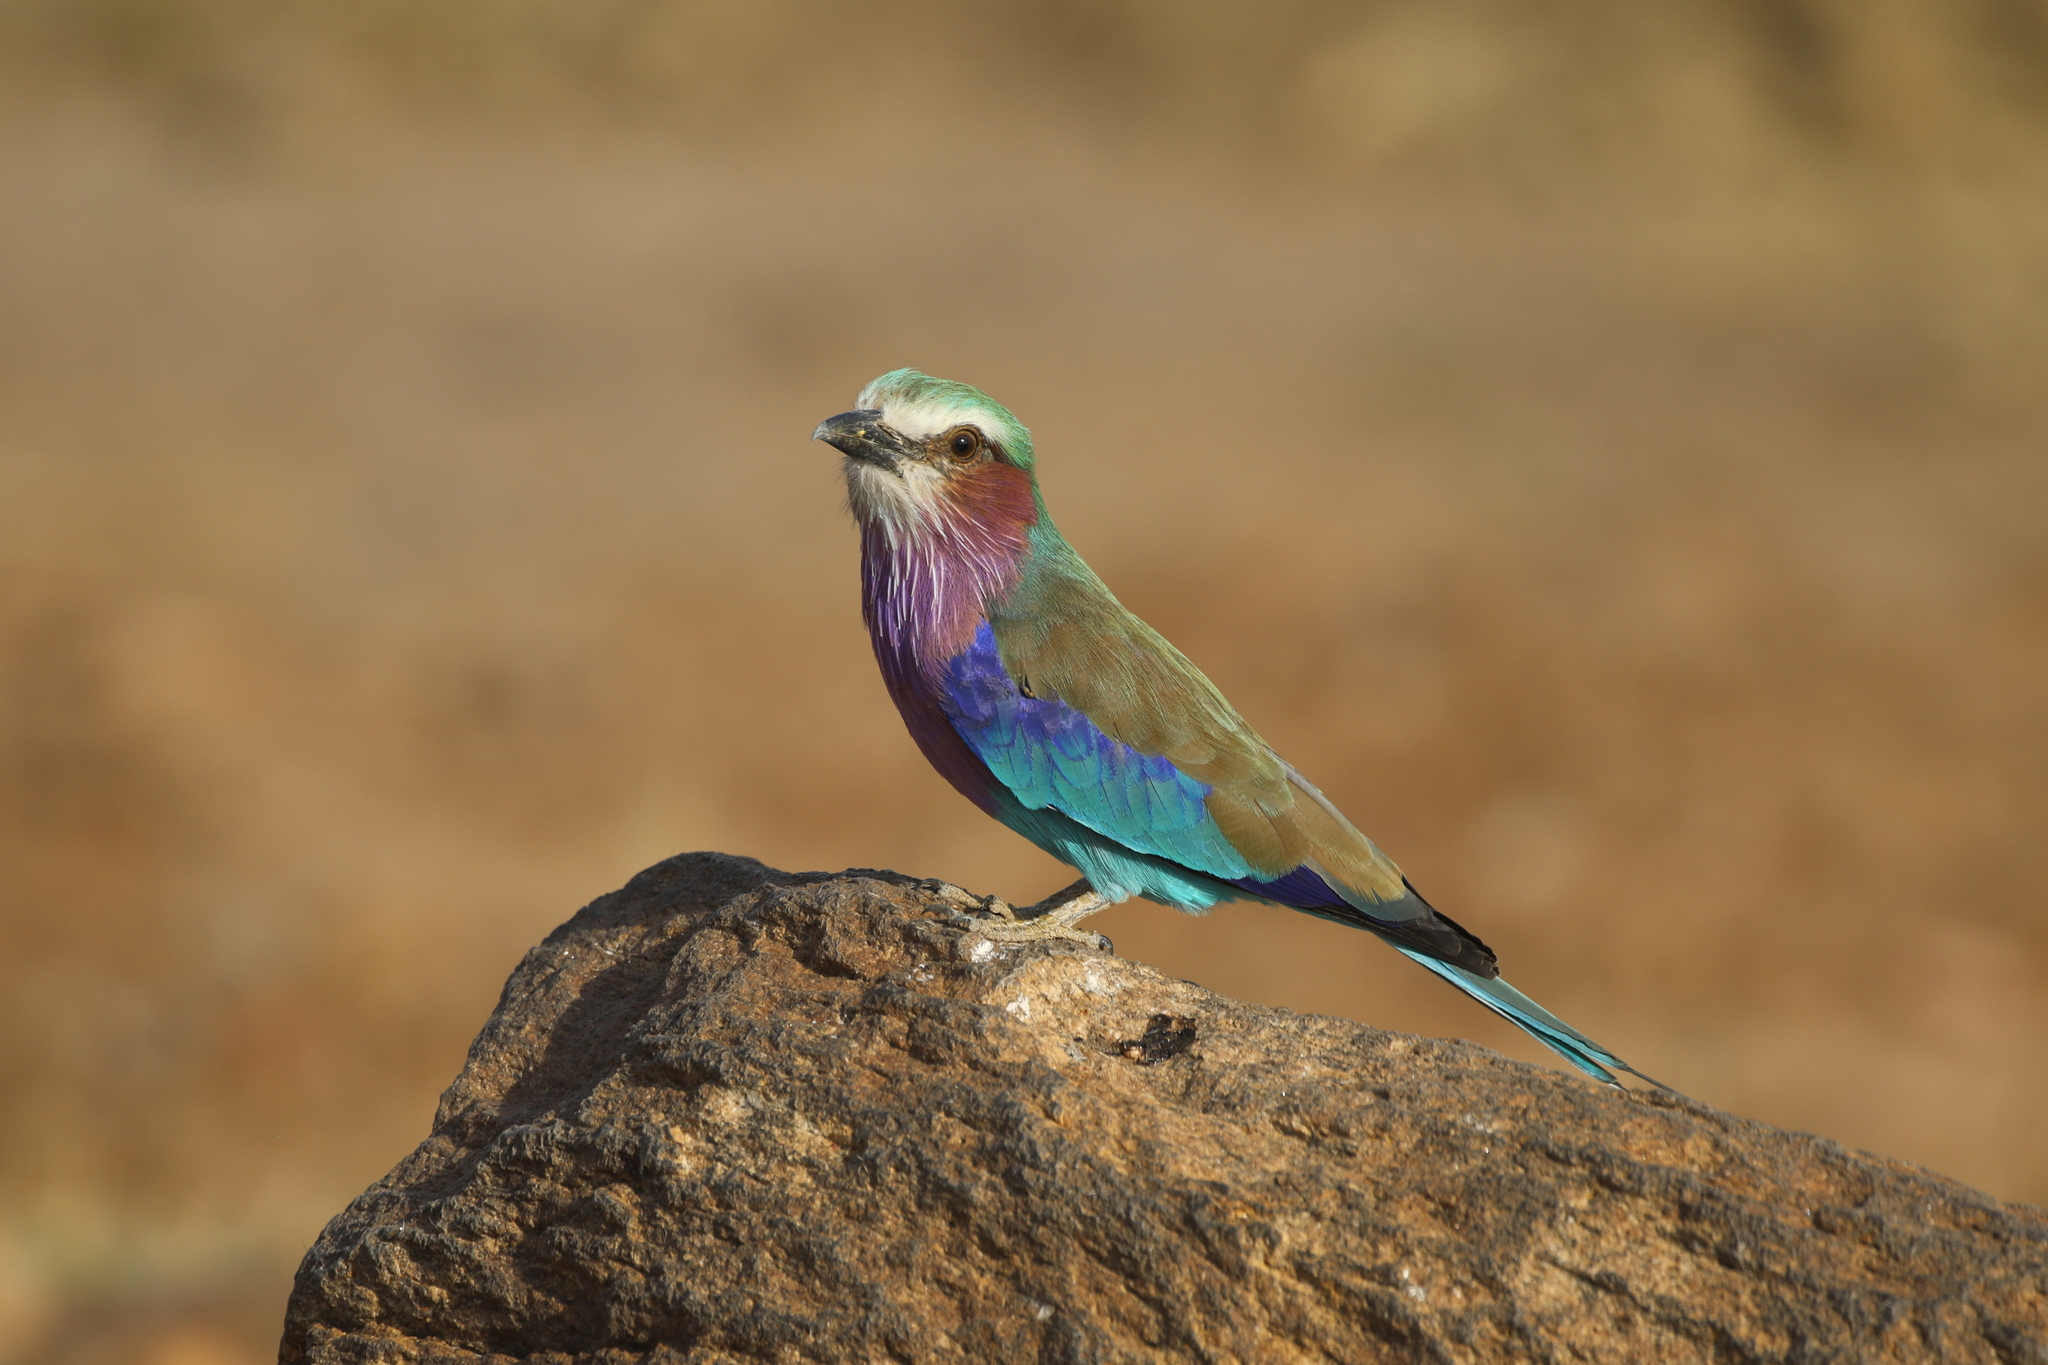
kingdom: Animalia
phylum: Chordata
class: Aves
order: Coraciiformes
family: Coraciidae
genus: Coracias
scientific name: Coracias caudatus
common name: Lilac-breasted roller
